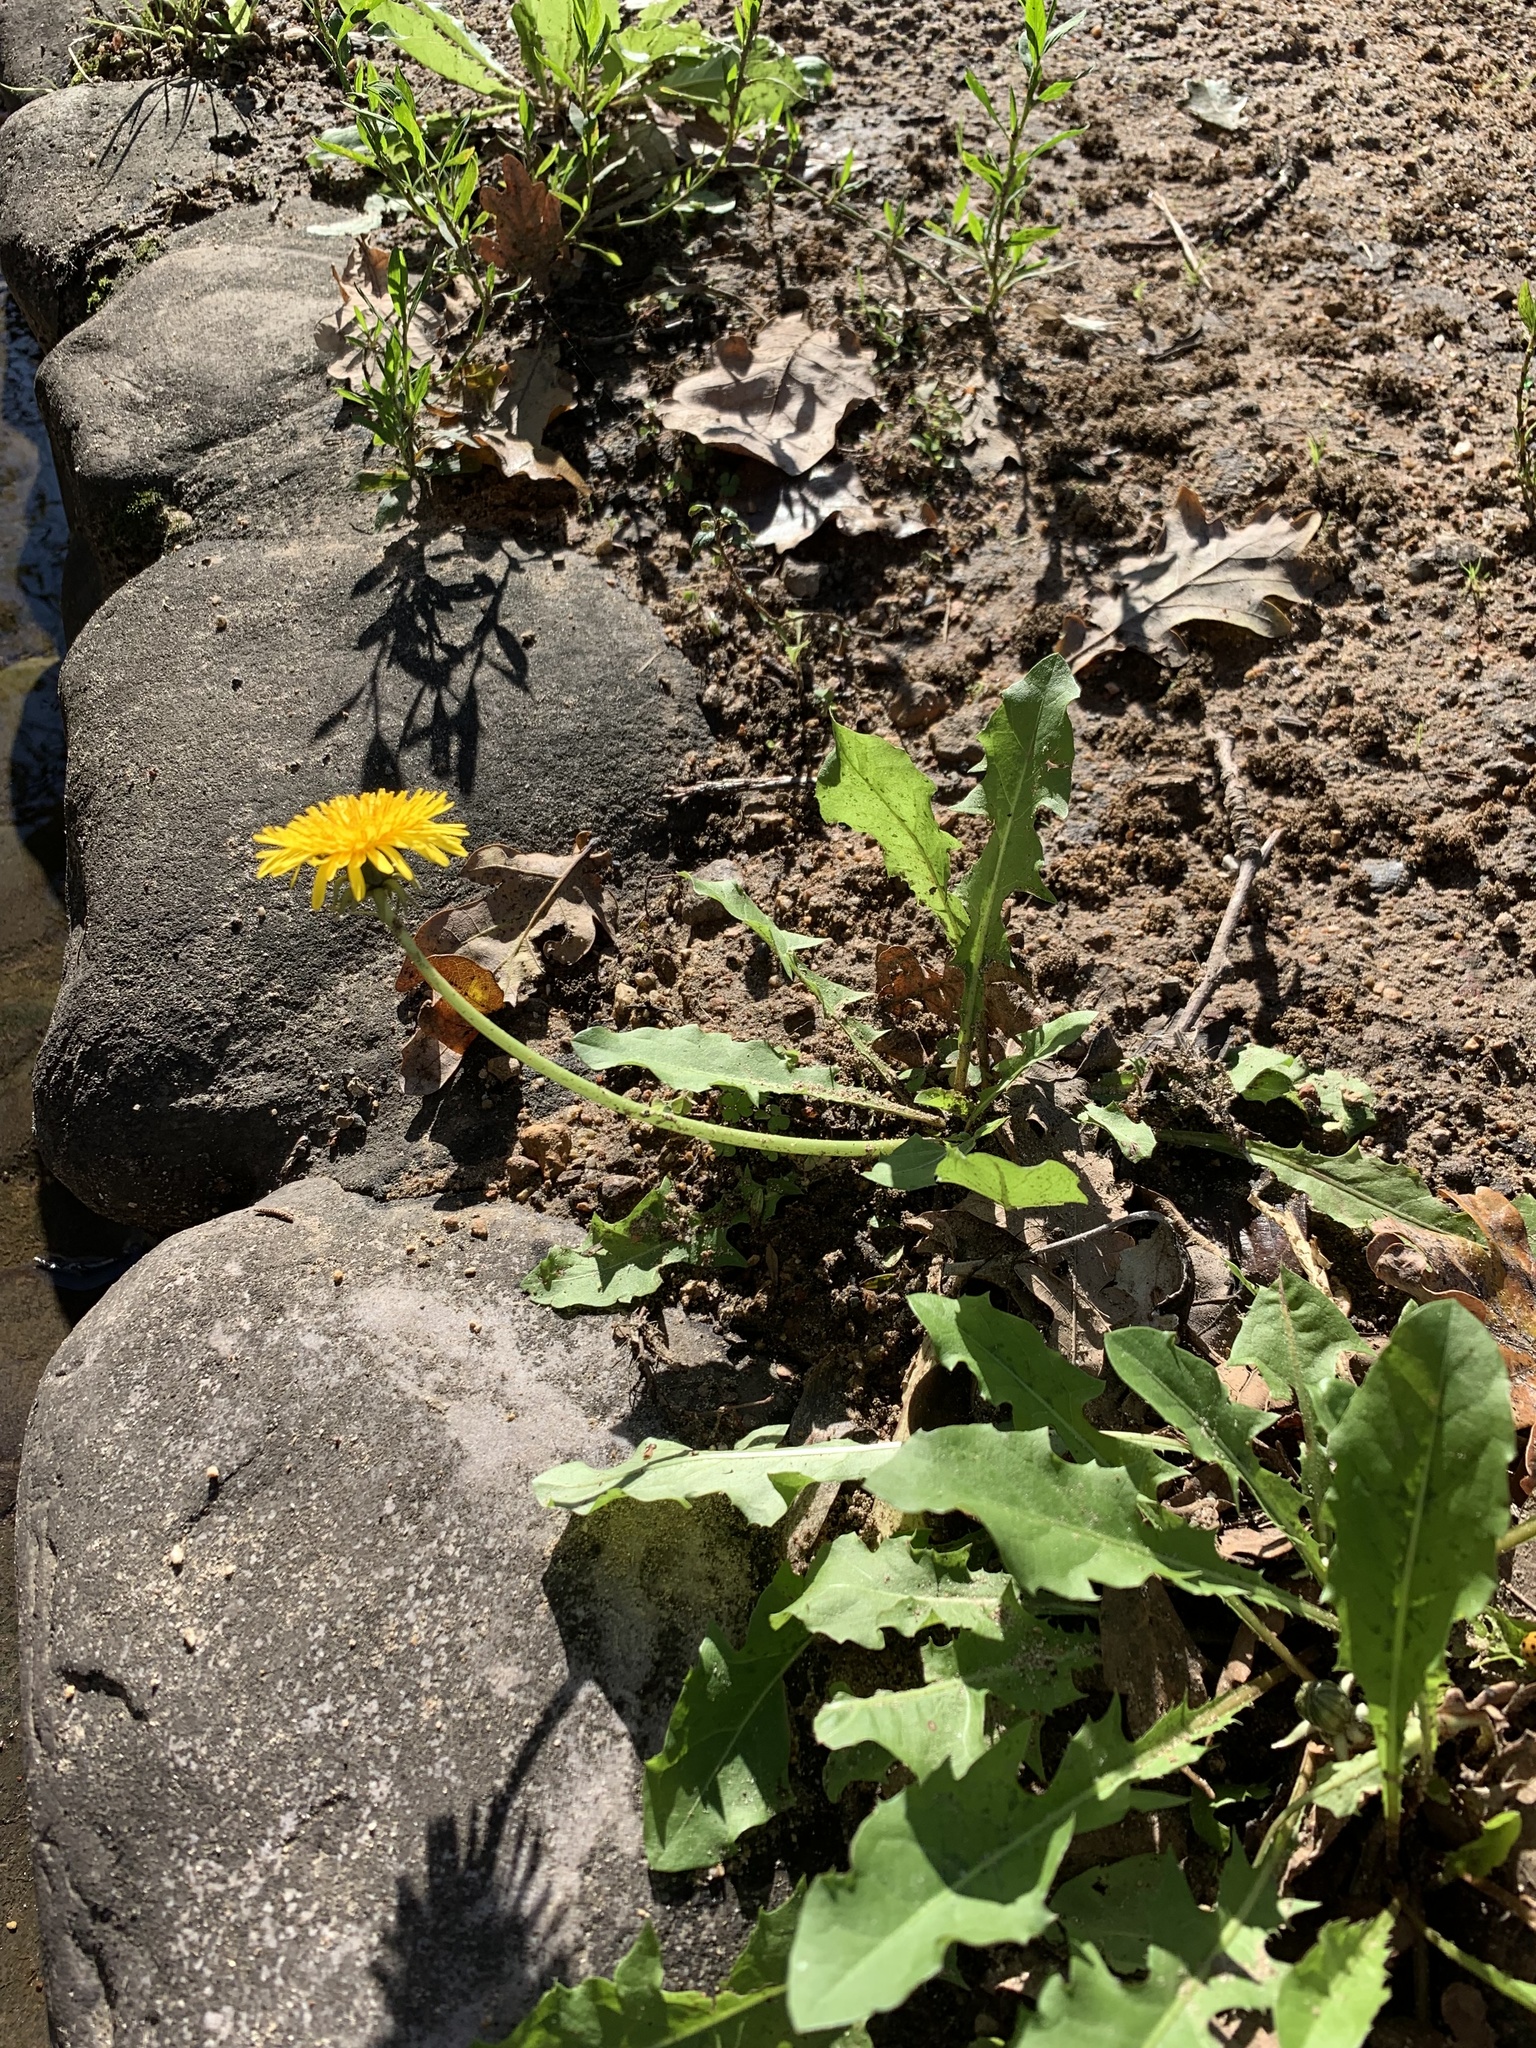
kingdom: Plantae
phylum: Tracheophyta
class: Magnoliopsida
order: Asterales
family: Asteraceae
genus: Taraxacum
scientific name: Taraxacum officinale
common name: Common dandelion
